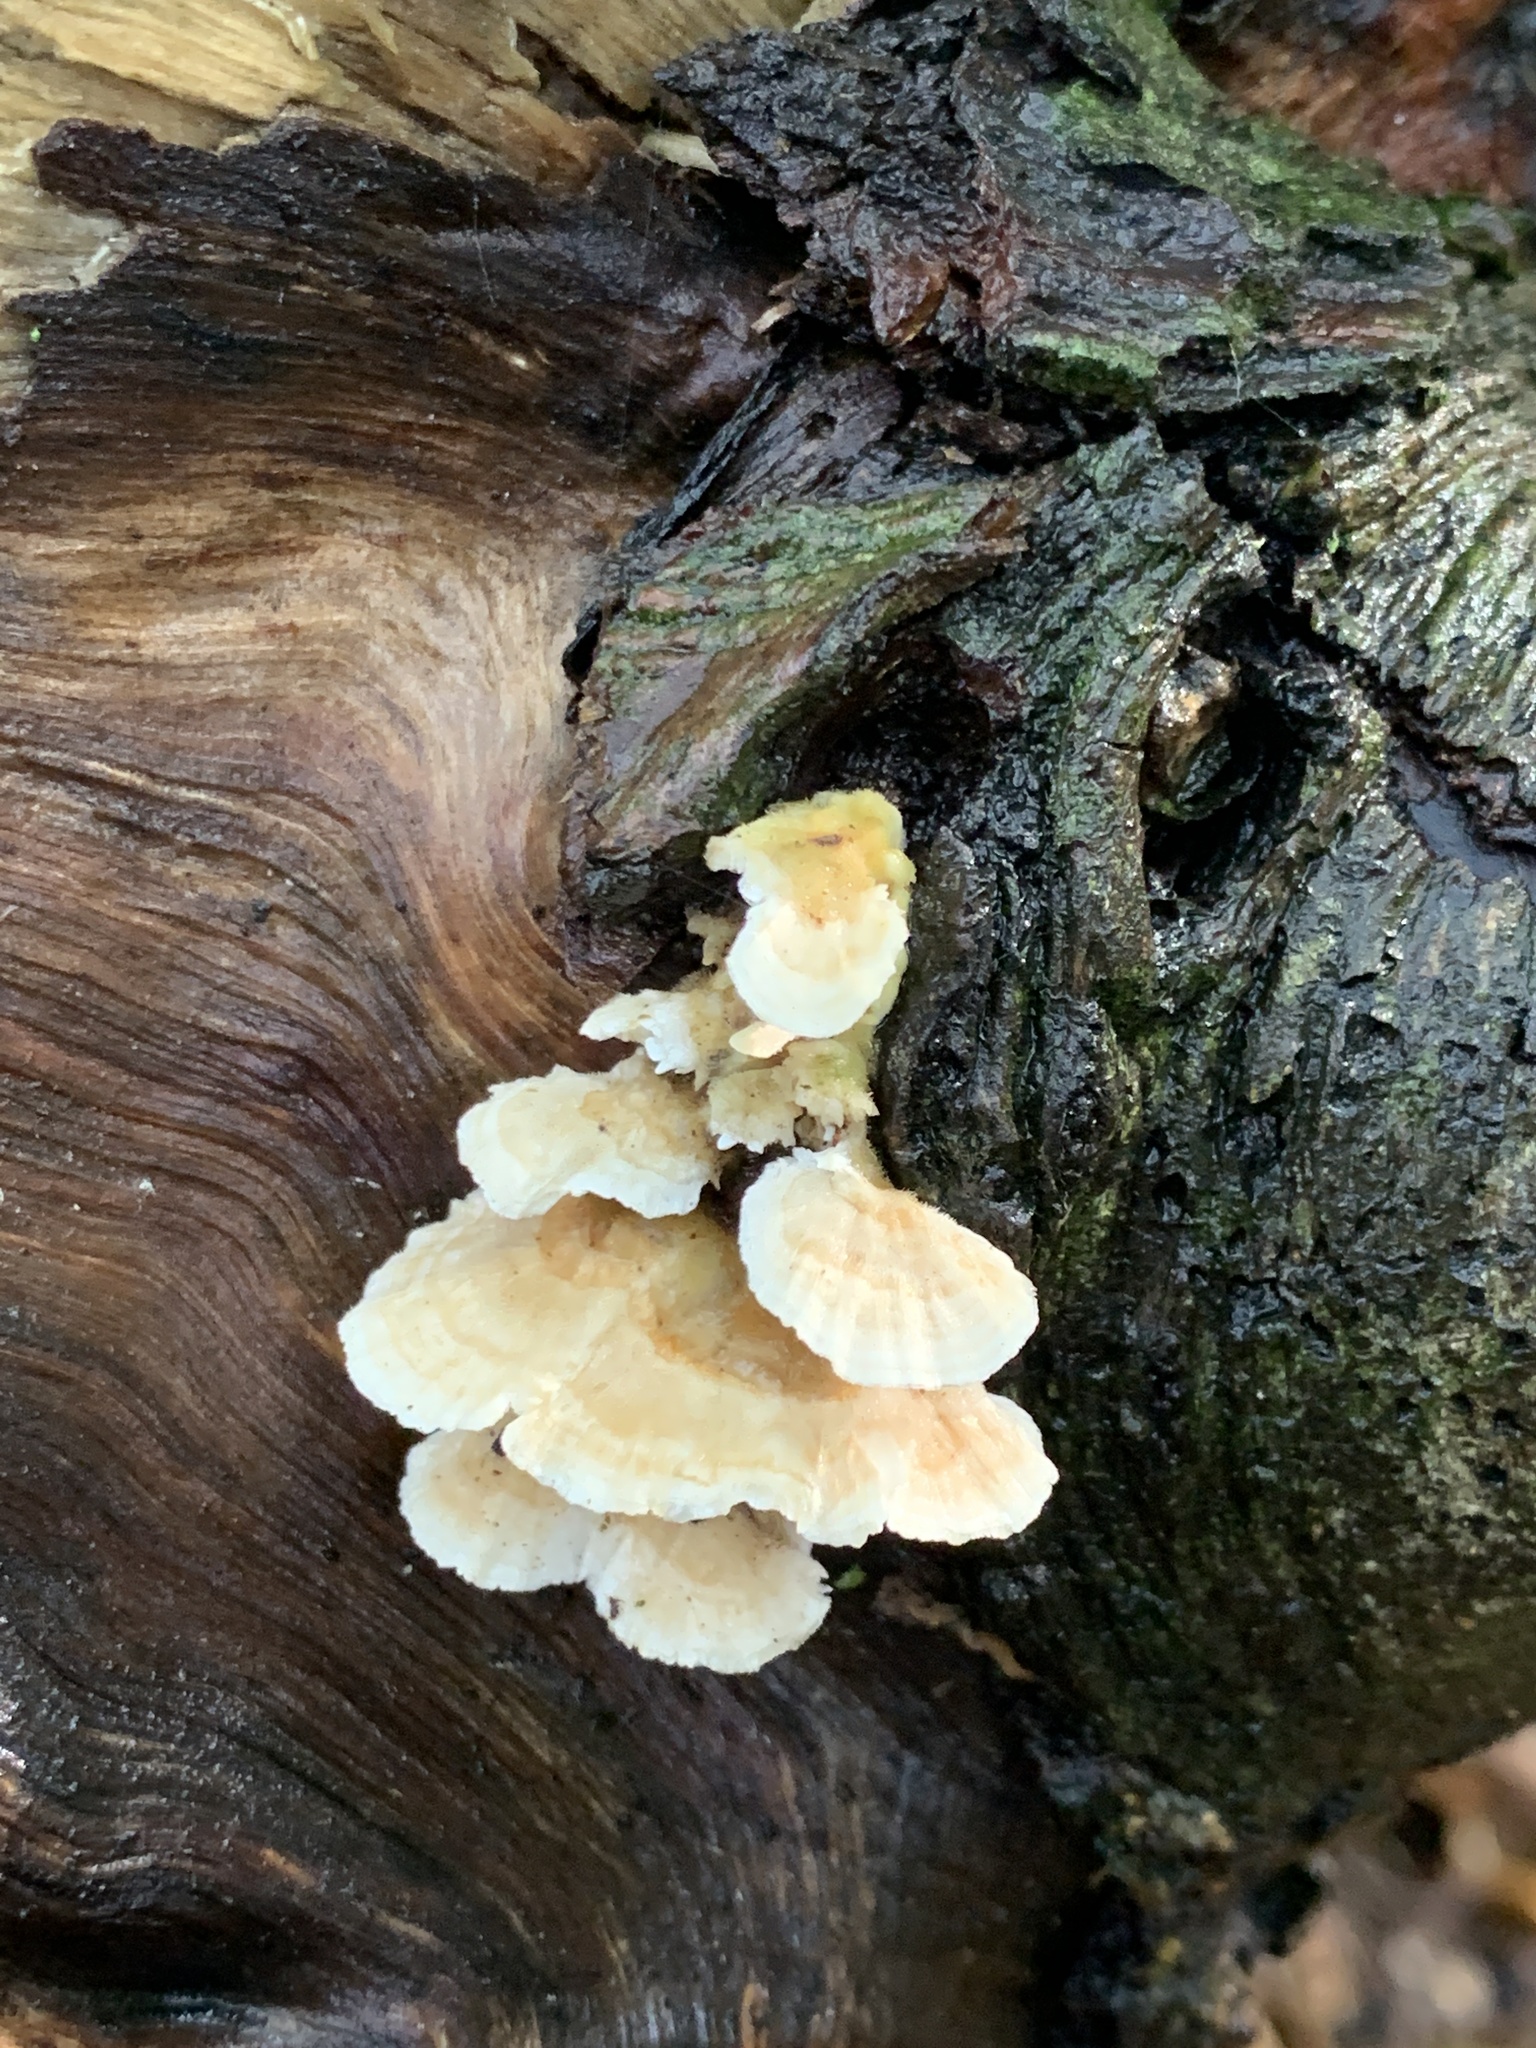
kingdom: Fungi
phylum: Basidiomycota
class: Agaricomycetes
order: Polyporales
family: Laetiporaceae
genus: Laetiporus
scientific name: Laetiporus sulphureus
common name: Chicken of the woods
